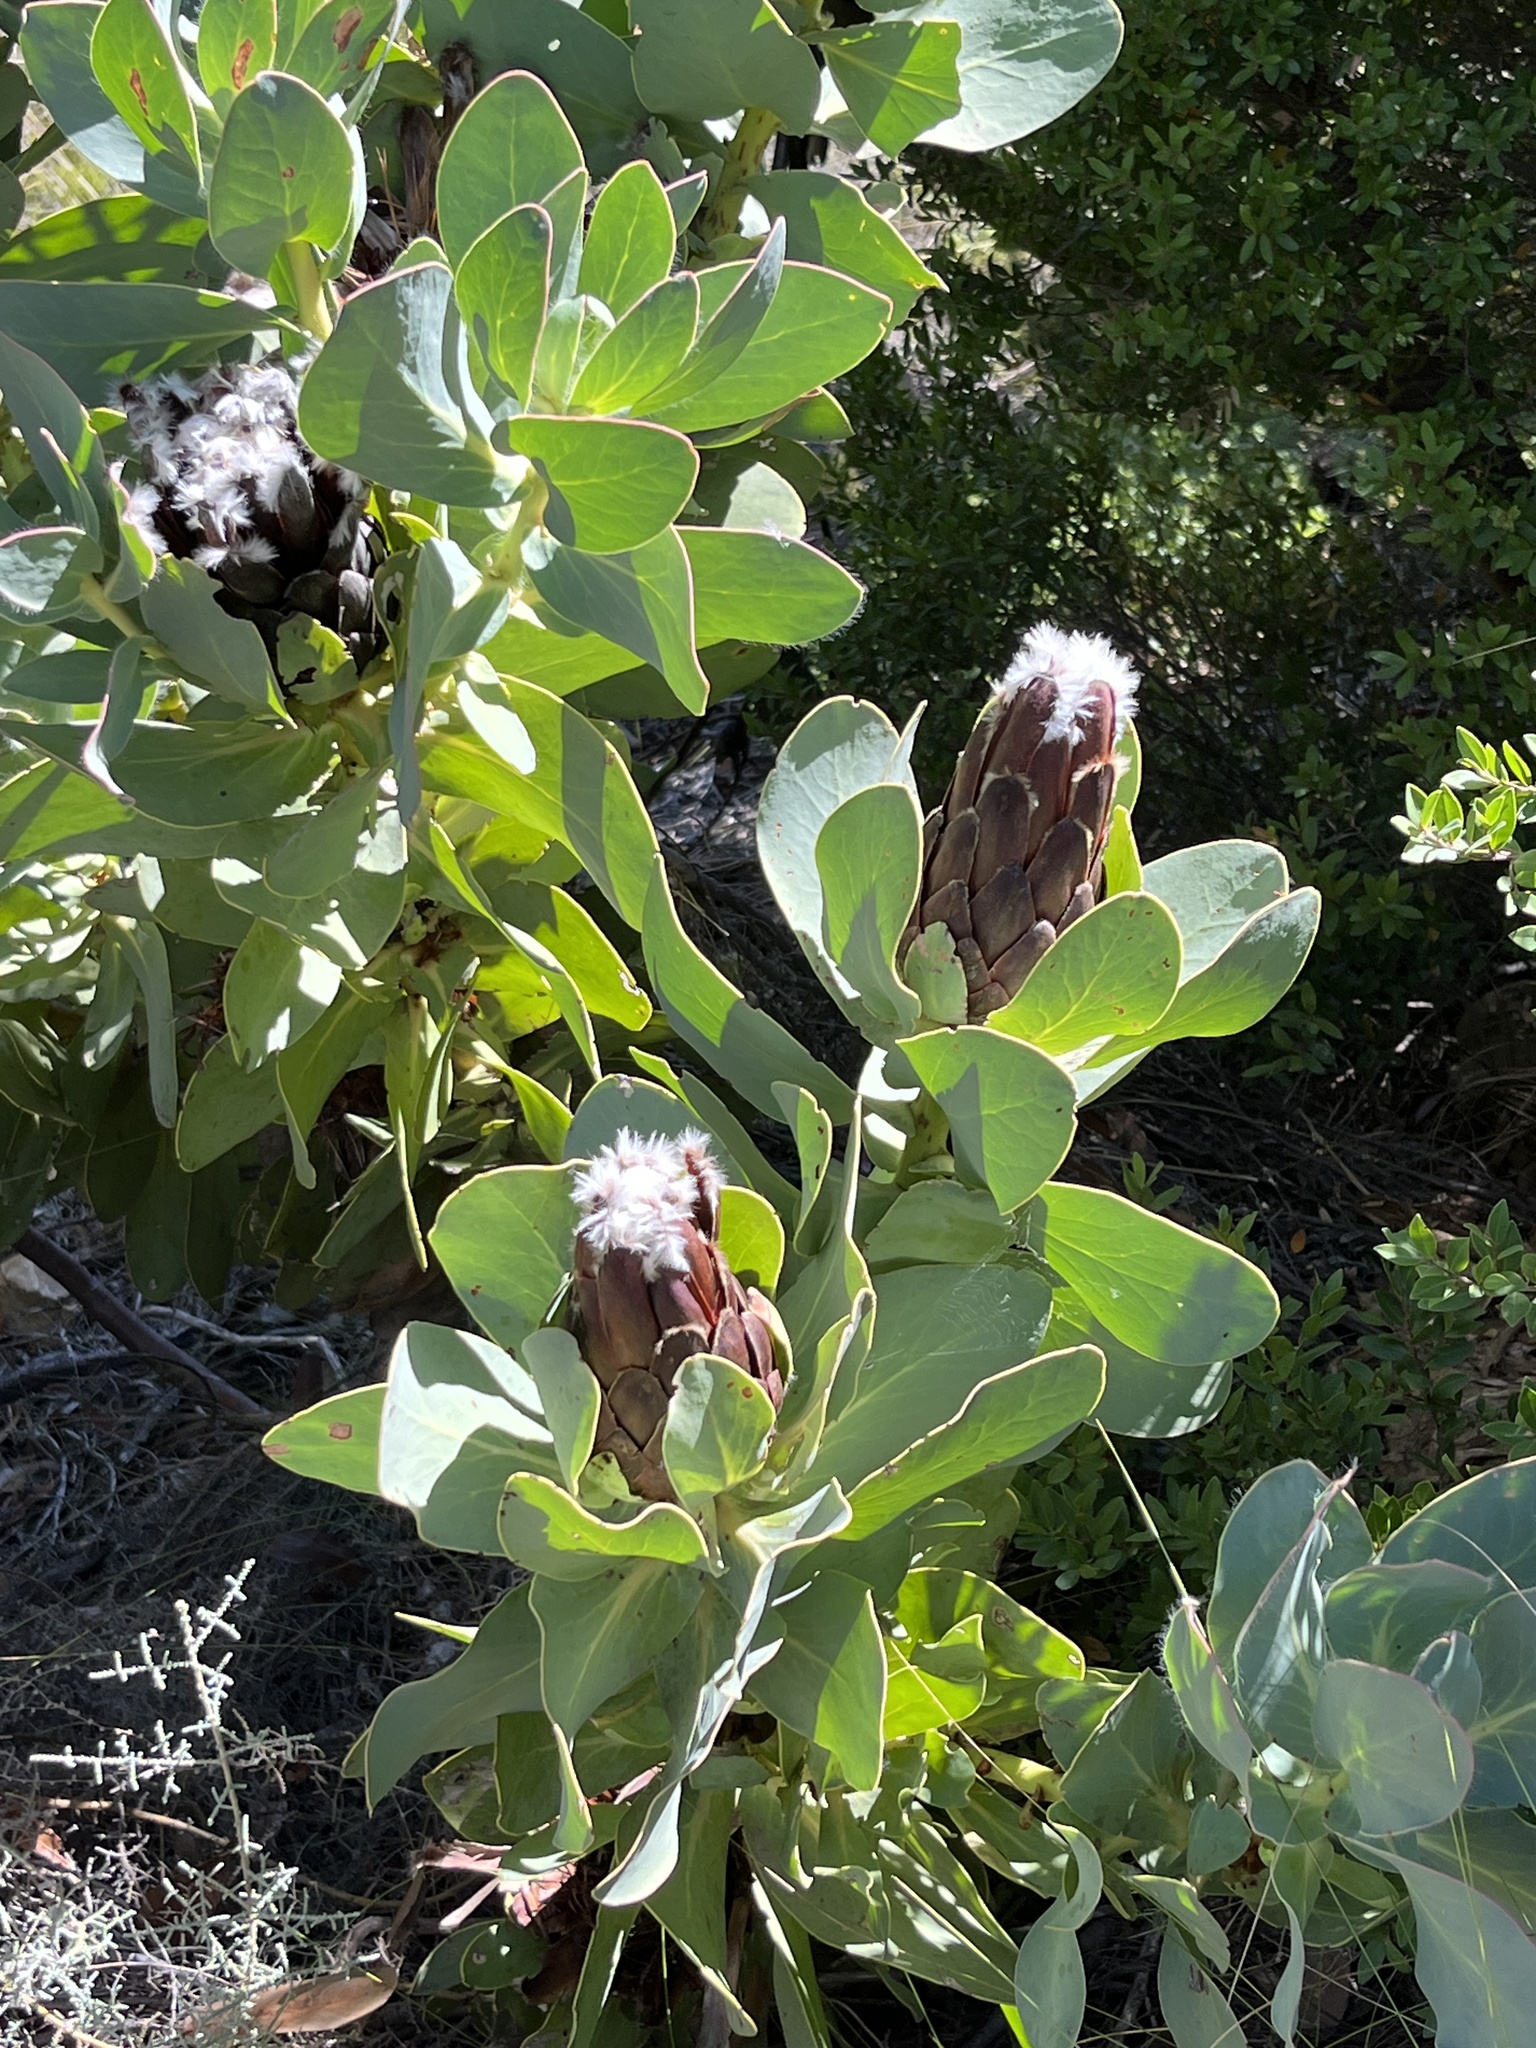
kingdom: Plantae
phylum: Tracheophyta
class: Magnoliopsida
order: Proteales
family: Proteaceae
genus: Protea
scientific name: Protea grandiceps
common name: Red sugarbush
